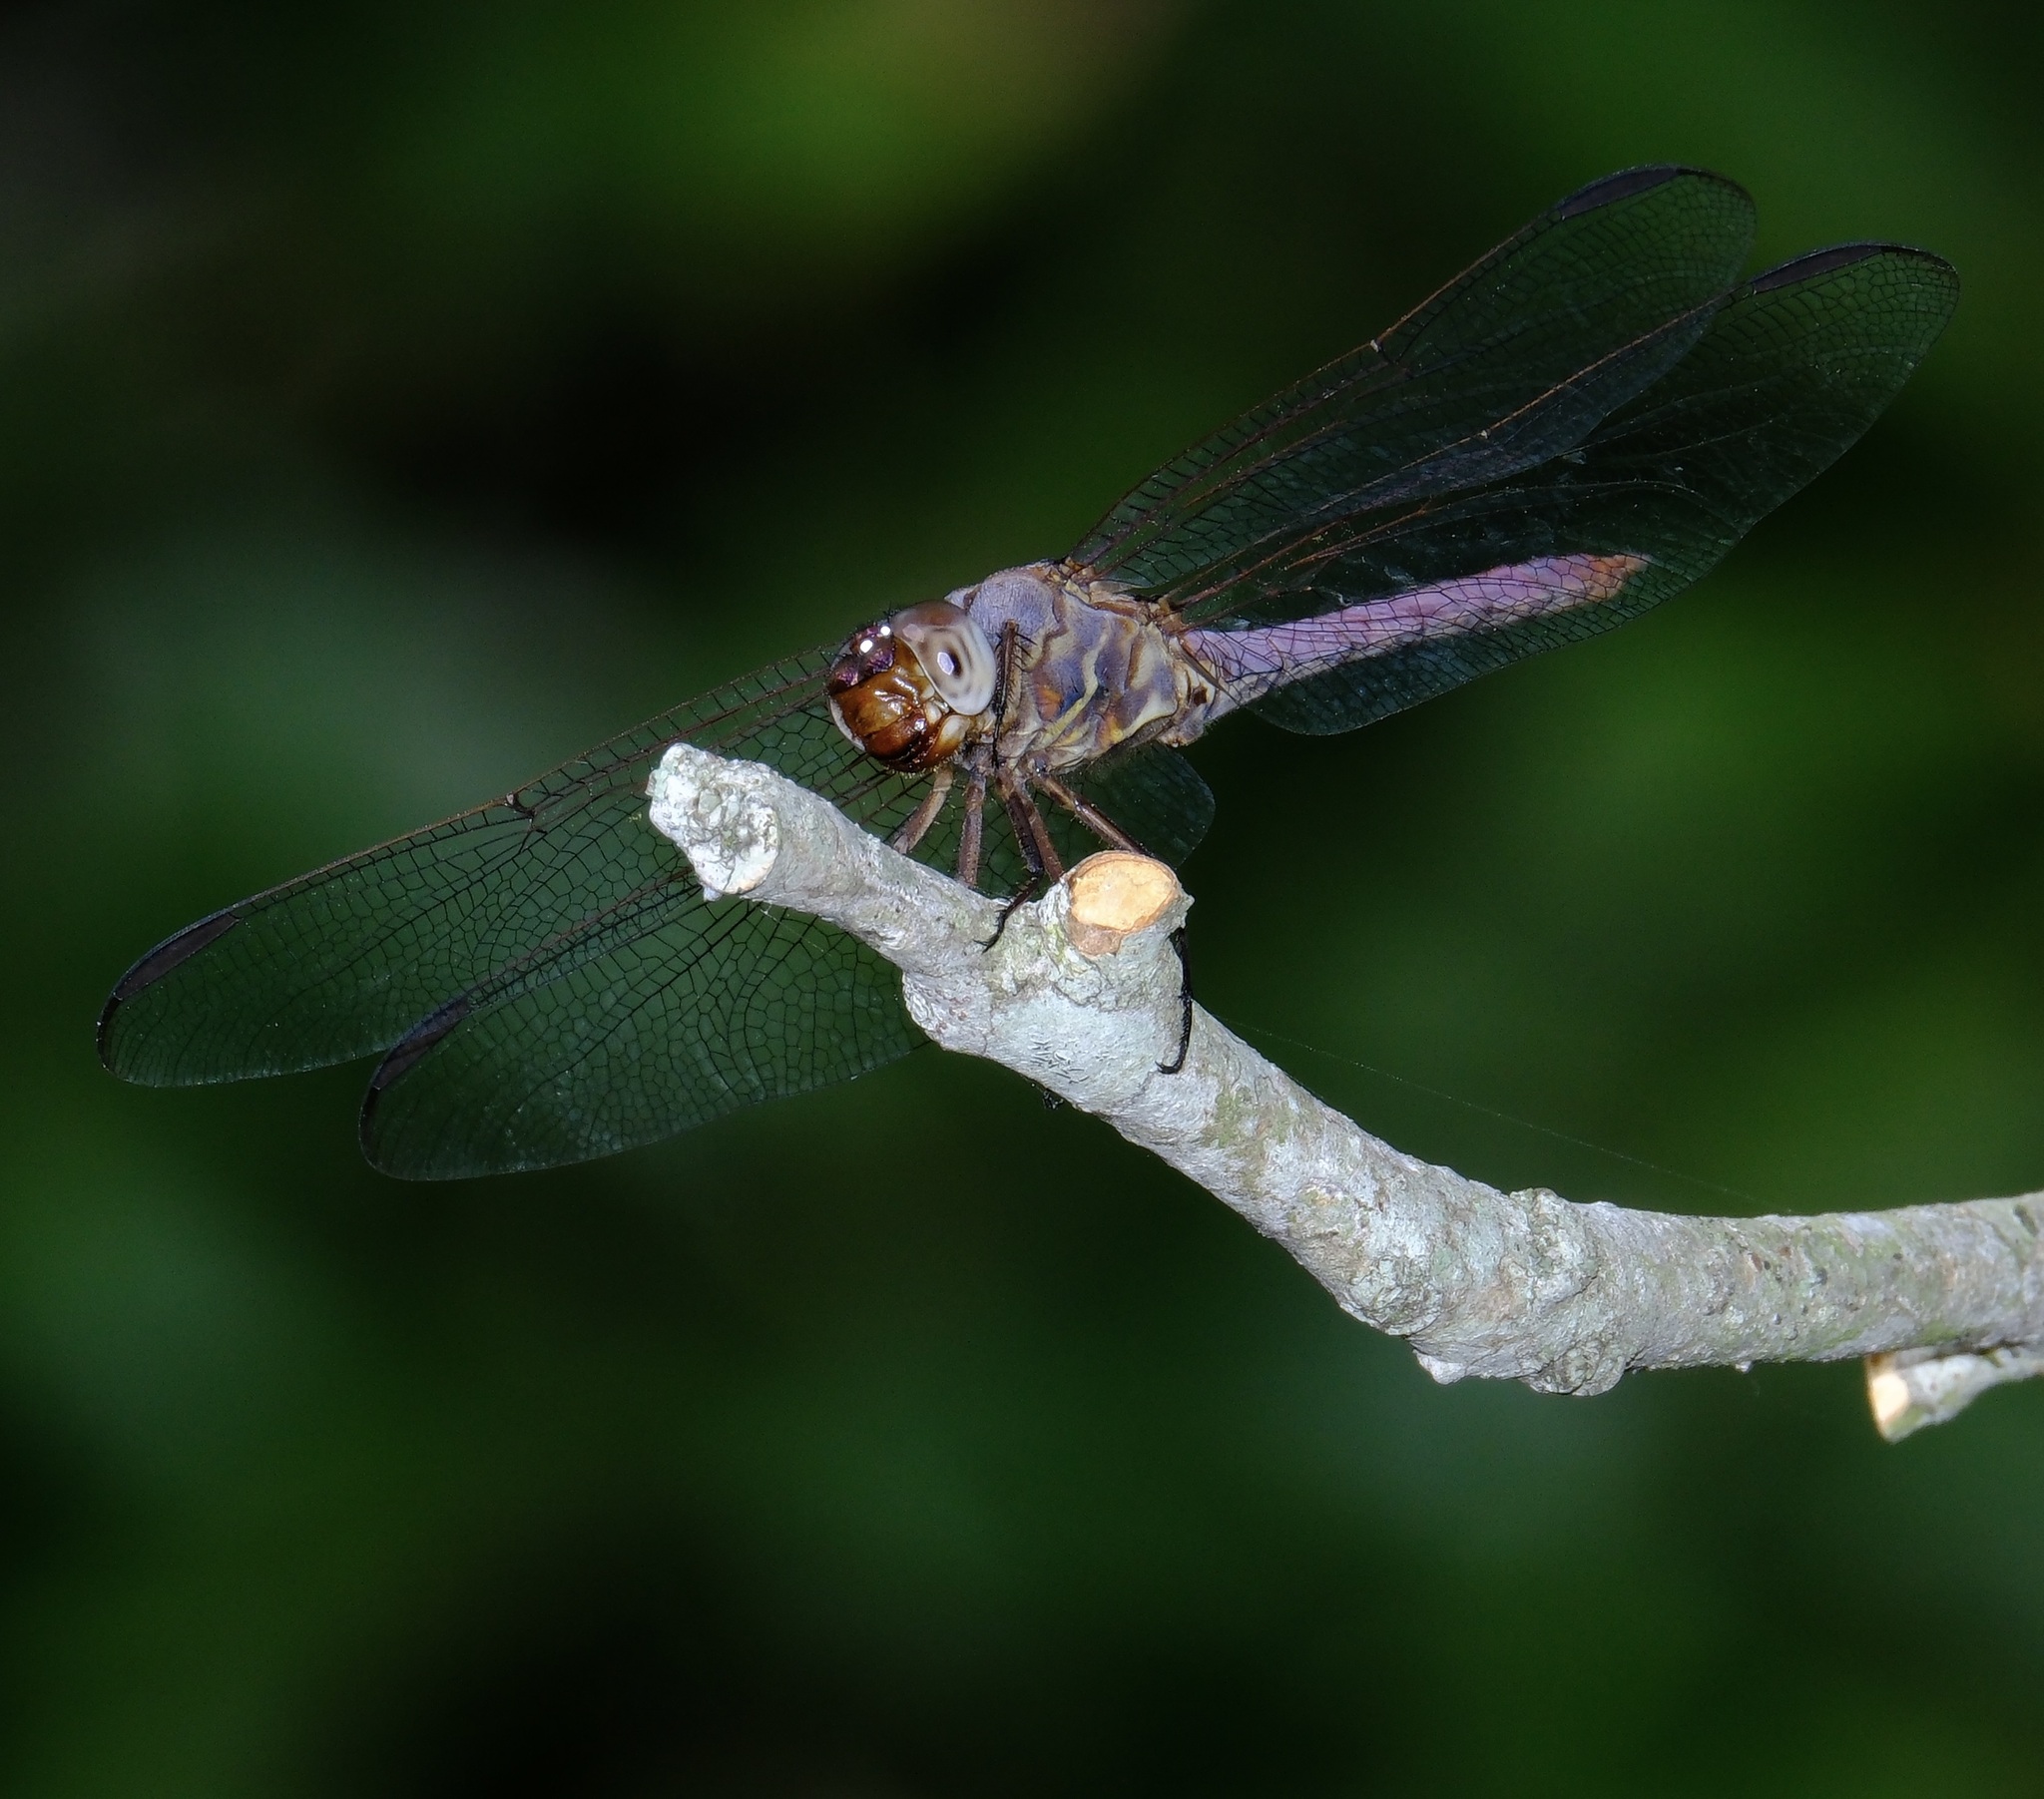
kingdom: Animalia
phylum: Arthropoda
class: Insecta
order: Odonata
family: Libellulidae
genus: Orthemis
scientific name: Orthemis ferruginea
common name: Roseate skimmer
